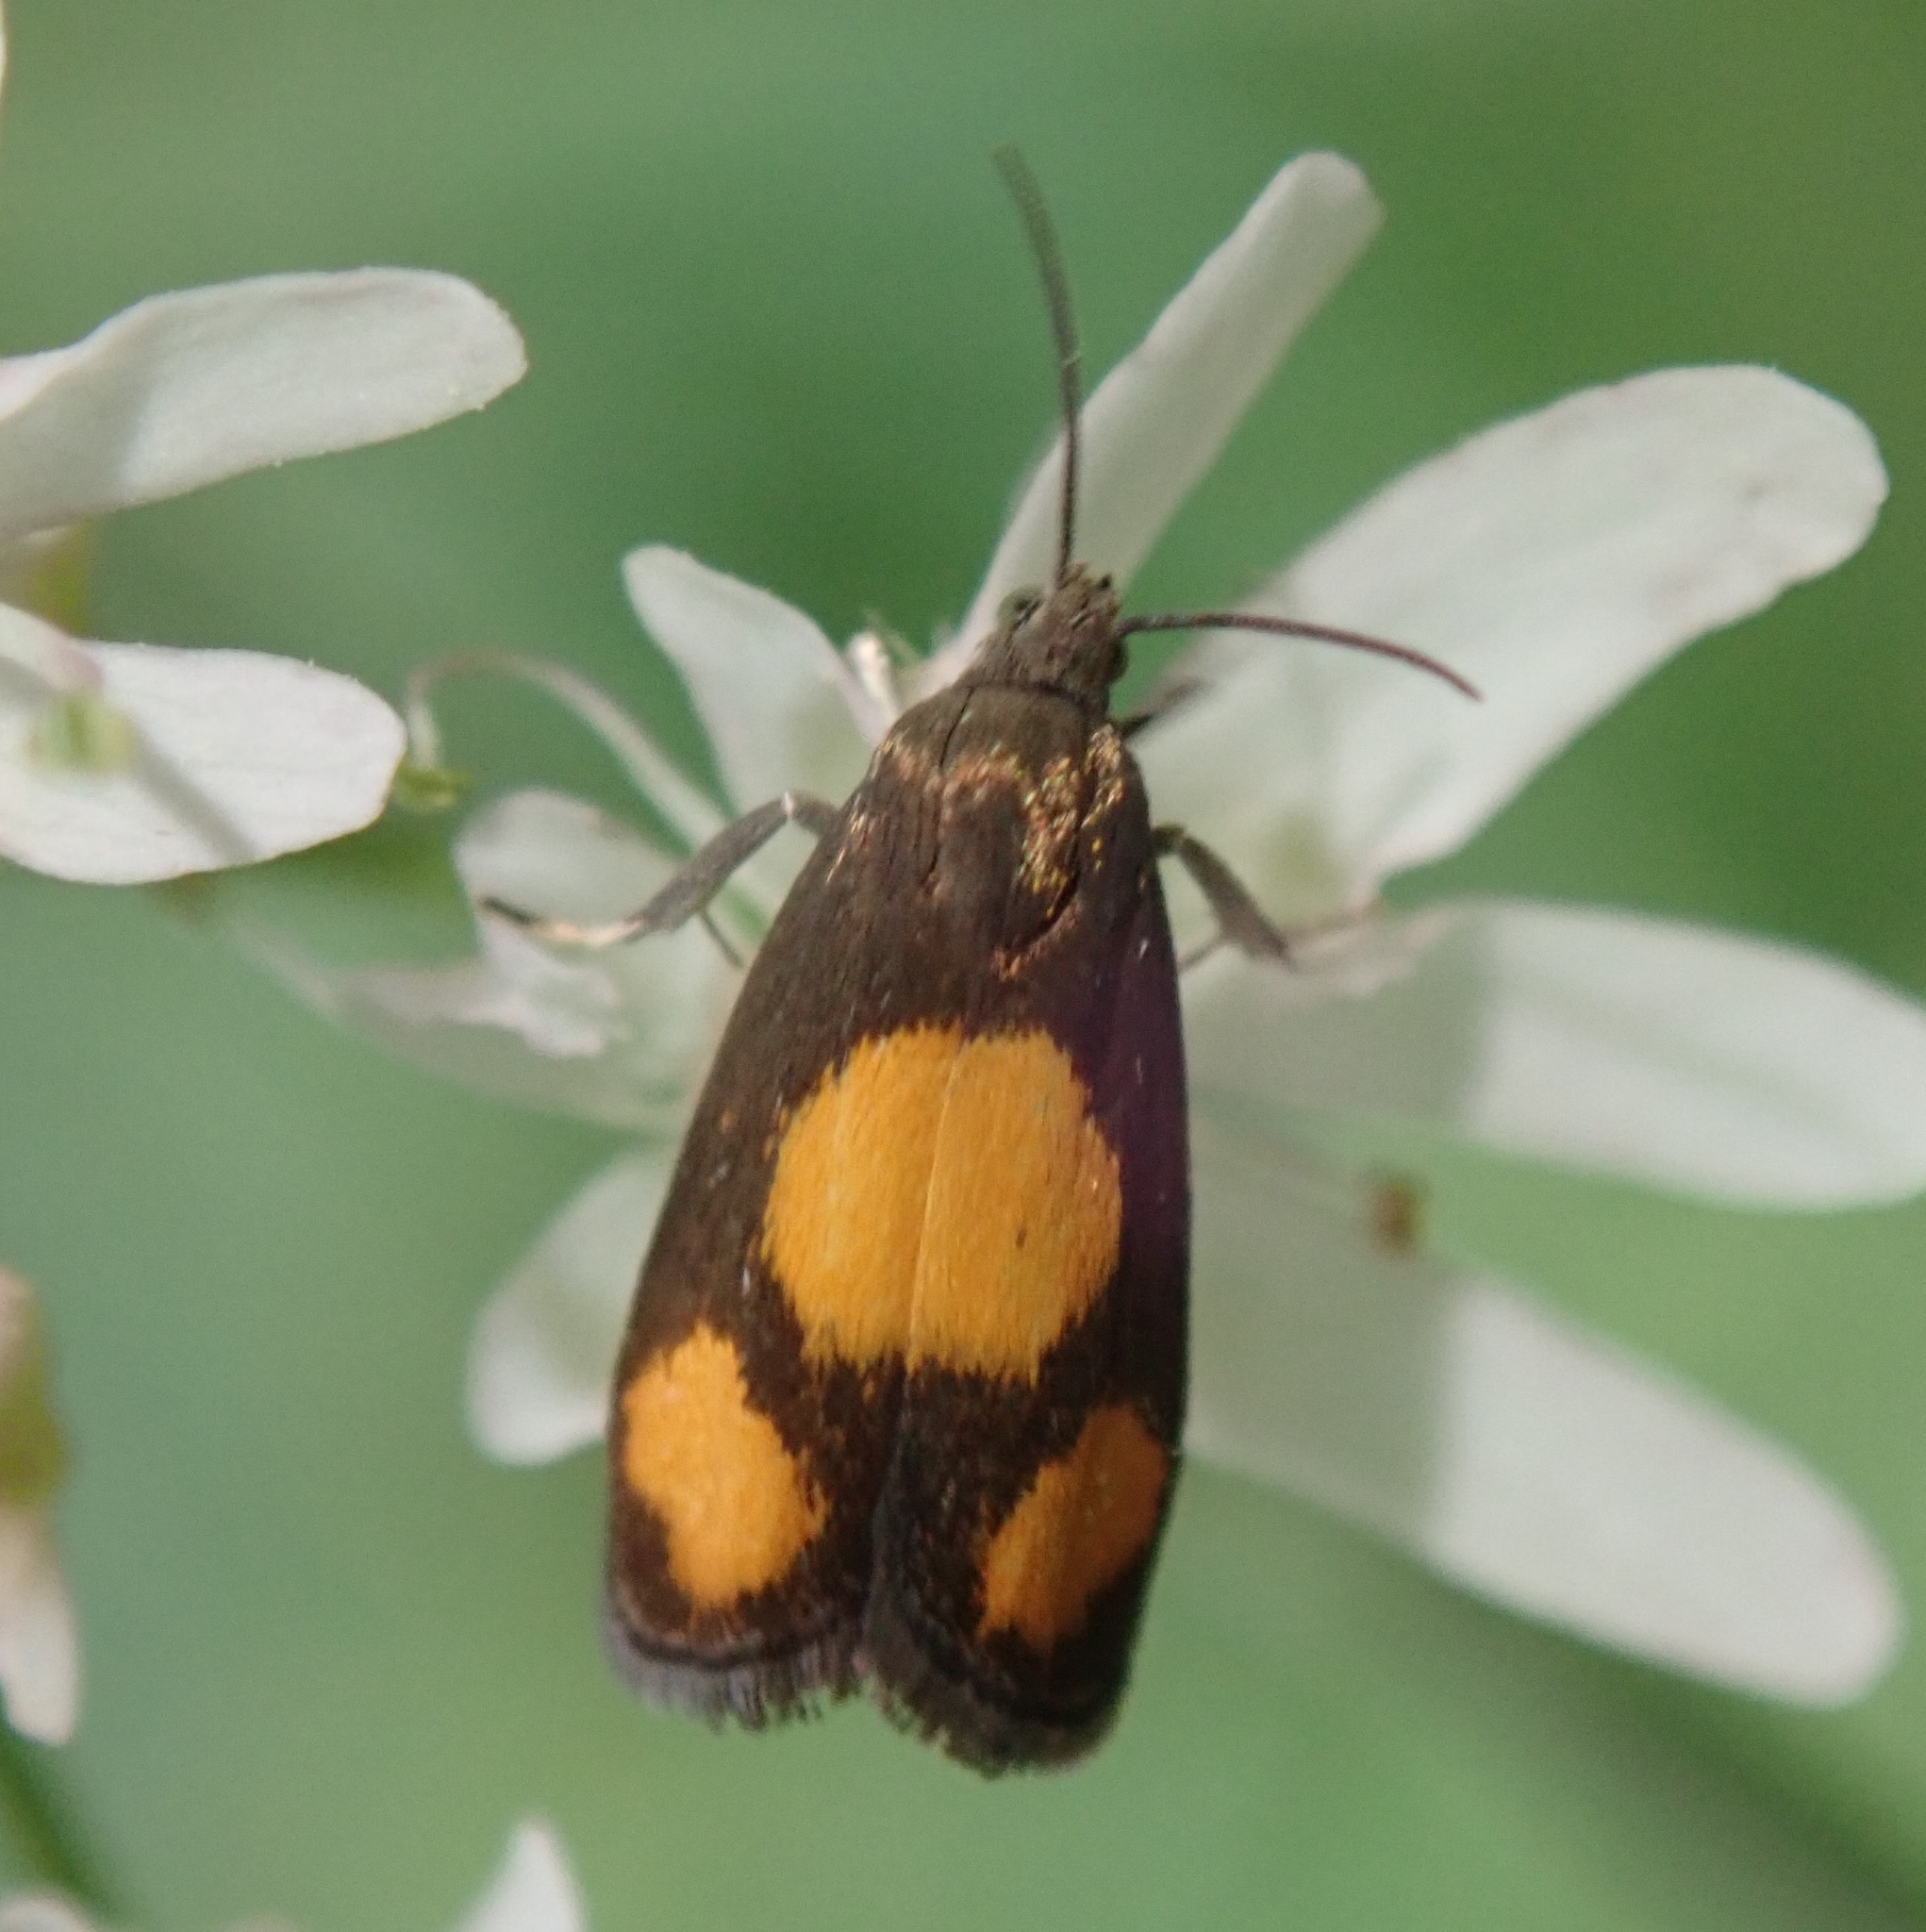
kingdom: Animalia
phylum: Arthropoda
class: Insecta
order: Lepidoptera
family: Tortricidae
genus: Pammene
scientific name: Pammene aurana
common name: Orange-spot piercer
